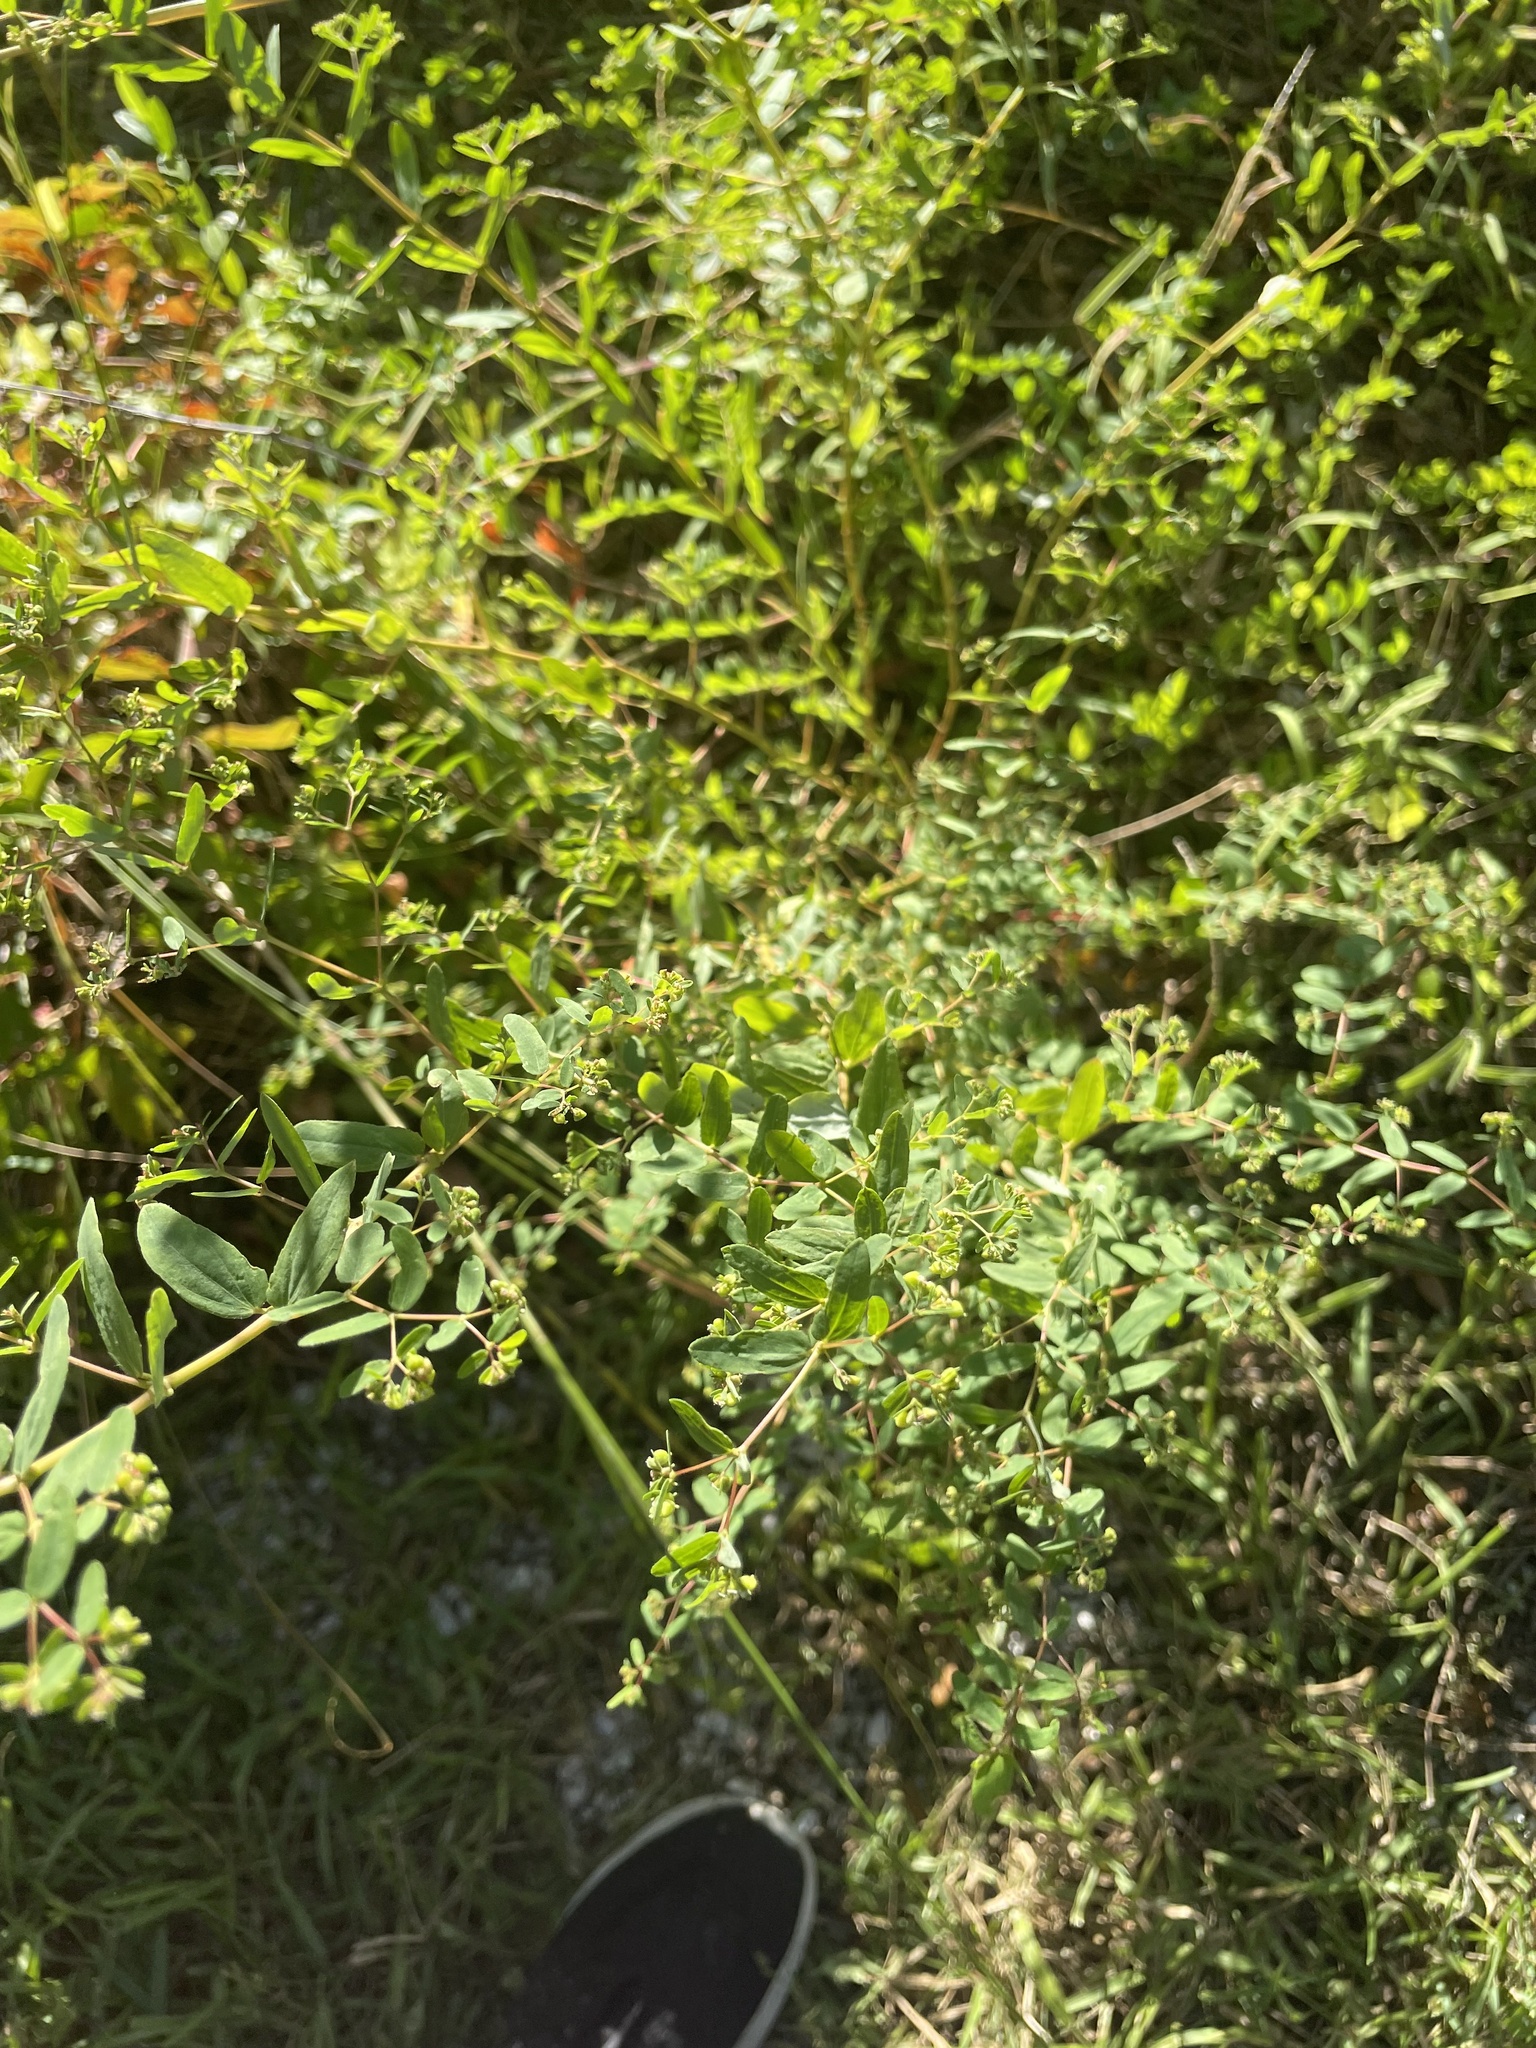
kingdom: Plantae
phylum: Tracheophyta
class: Magnoliopsida
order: Malpighiales
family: Euphorbiaceae
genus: Euphorbia
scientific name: Euphorbia hyssopifolia
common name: Hyssopleaf sandmat
